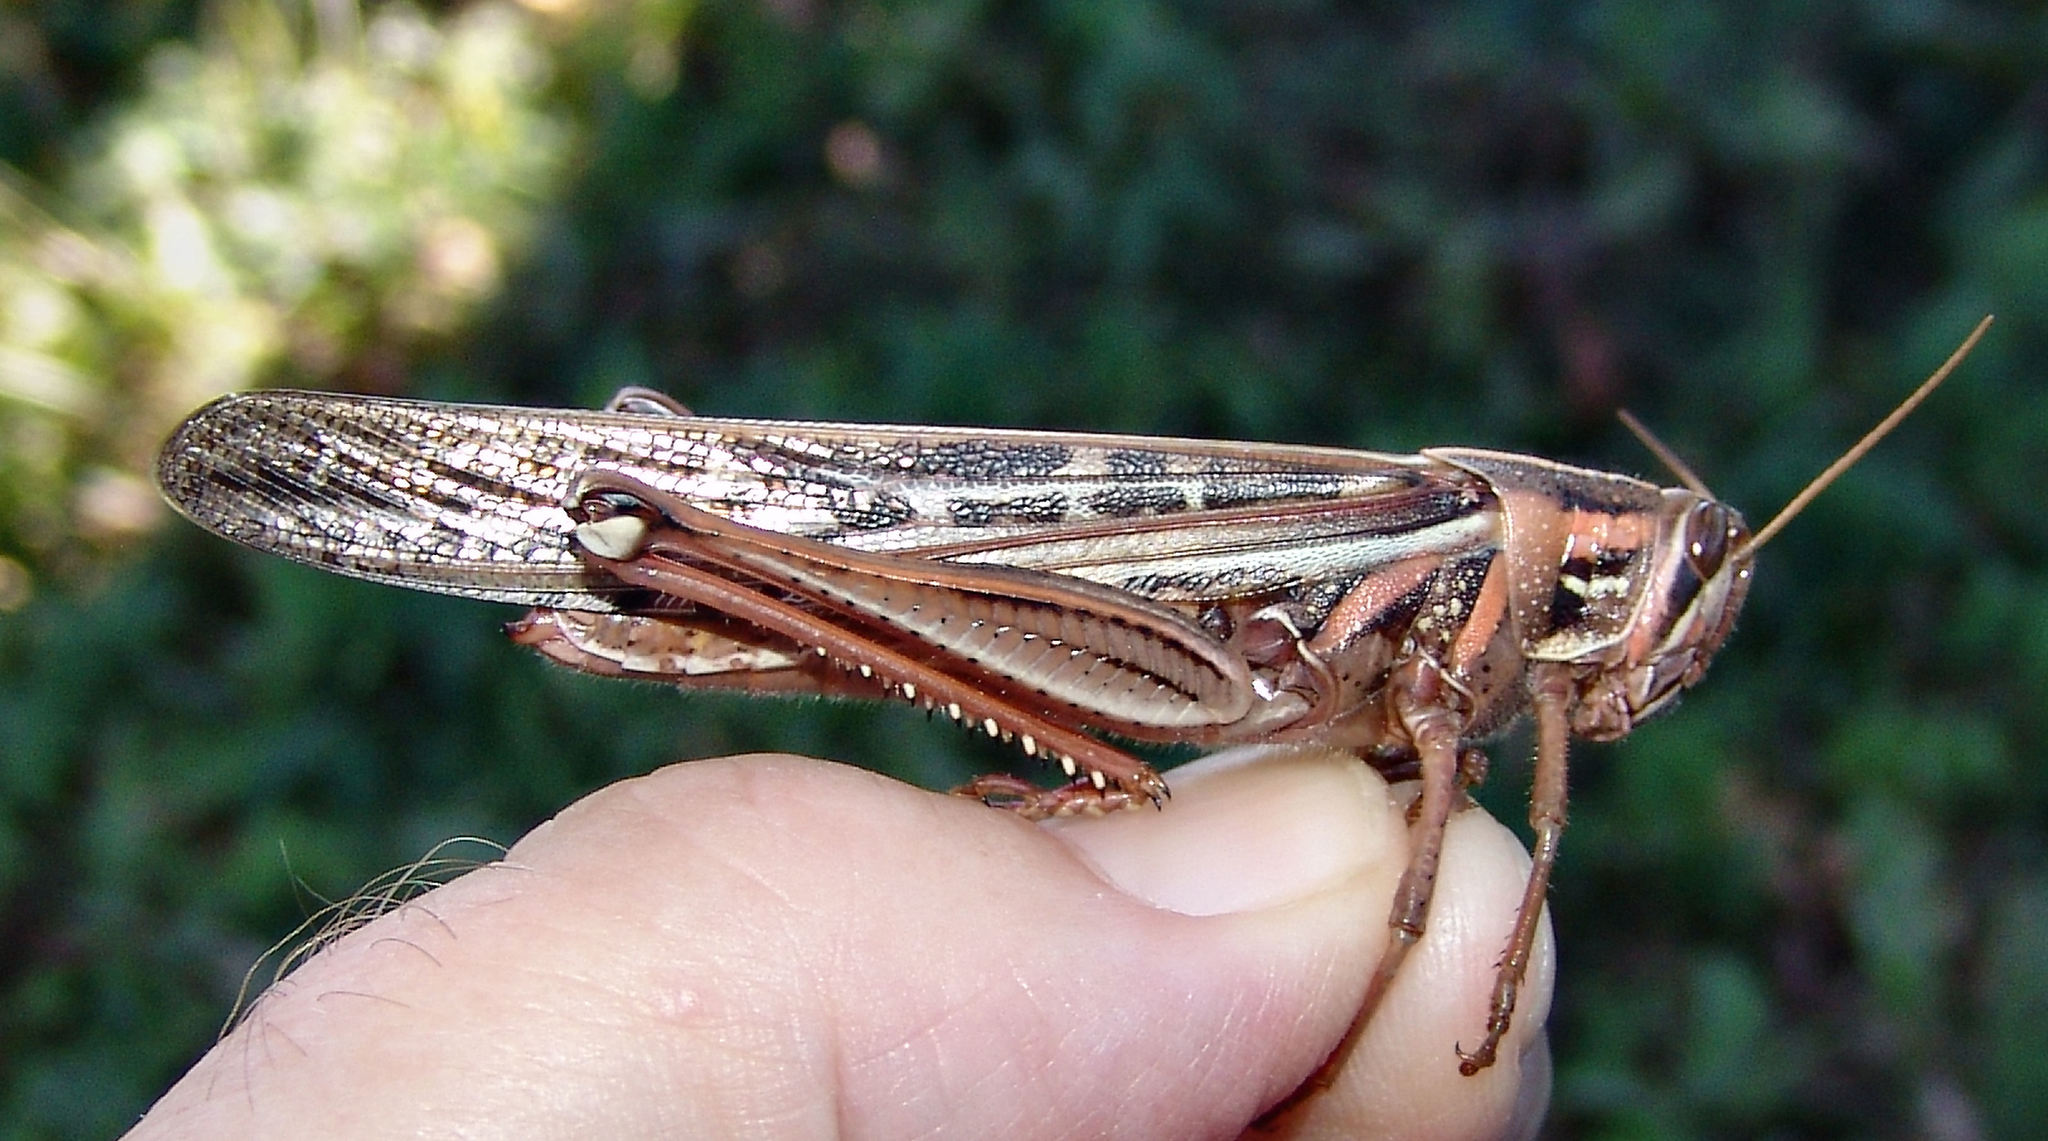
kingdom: Animalia
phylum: Arthropoda
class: Insecta
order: Orthoptera
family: Acrididae
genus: Schistocerca
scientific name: Schistocerca americana
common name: American bird locust
